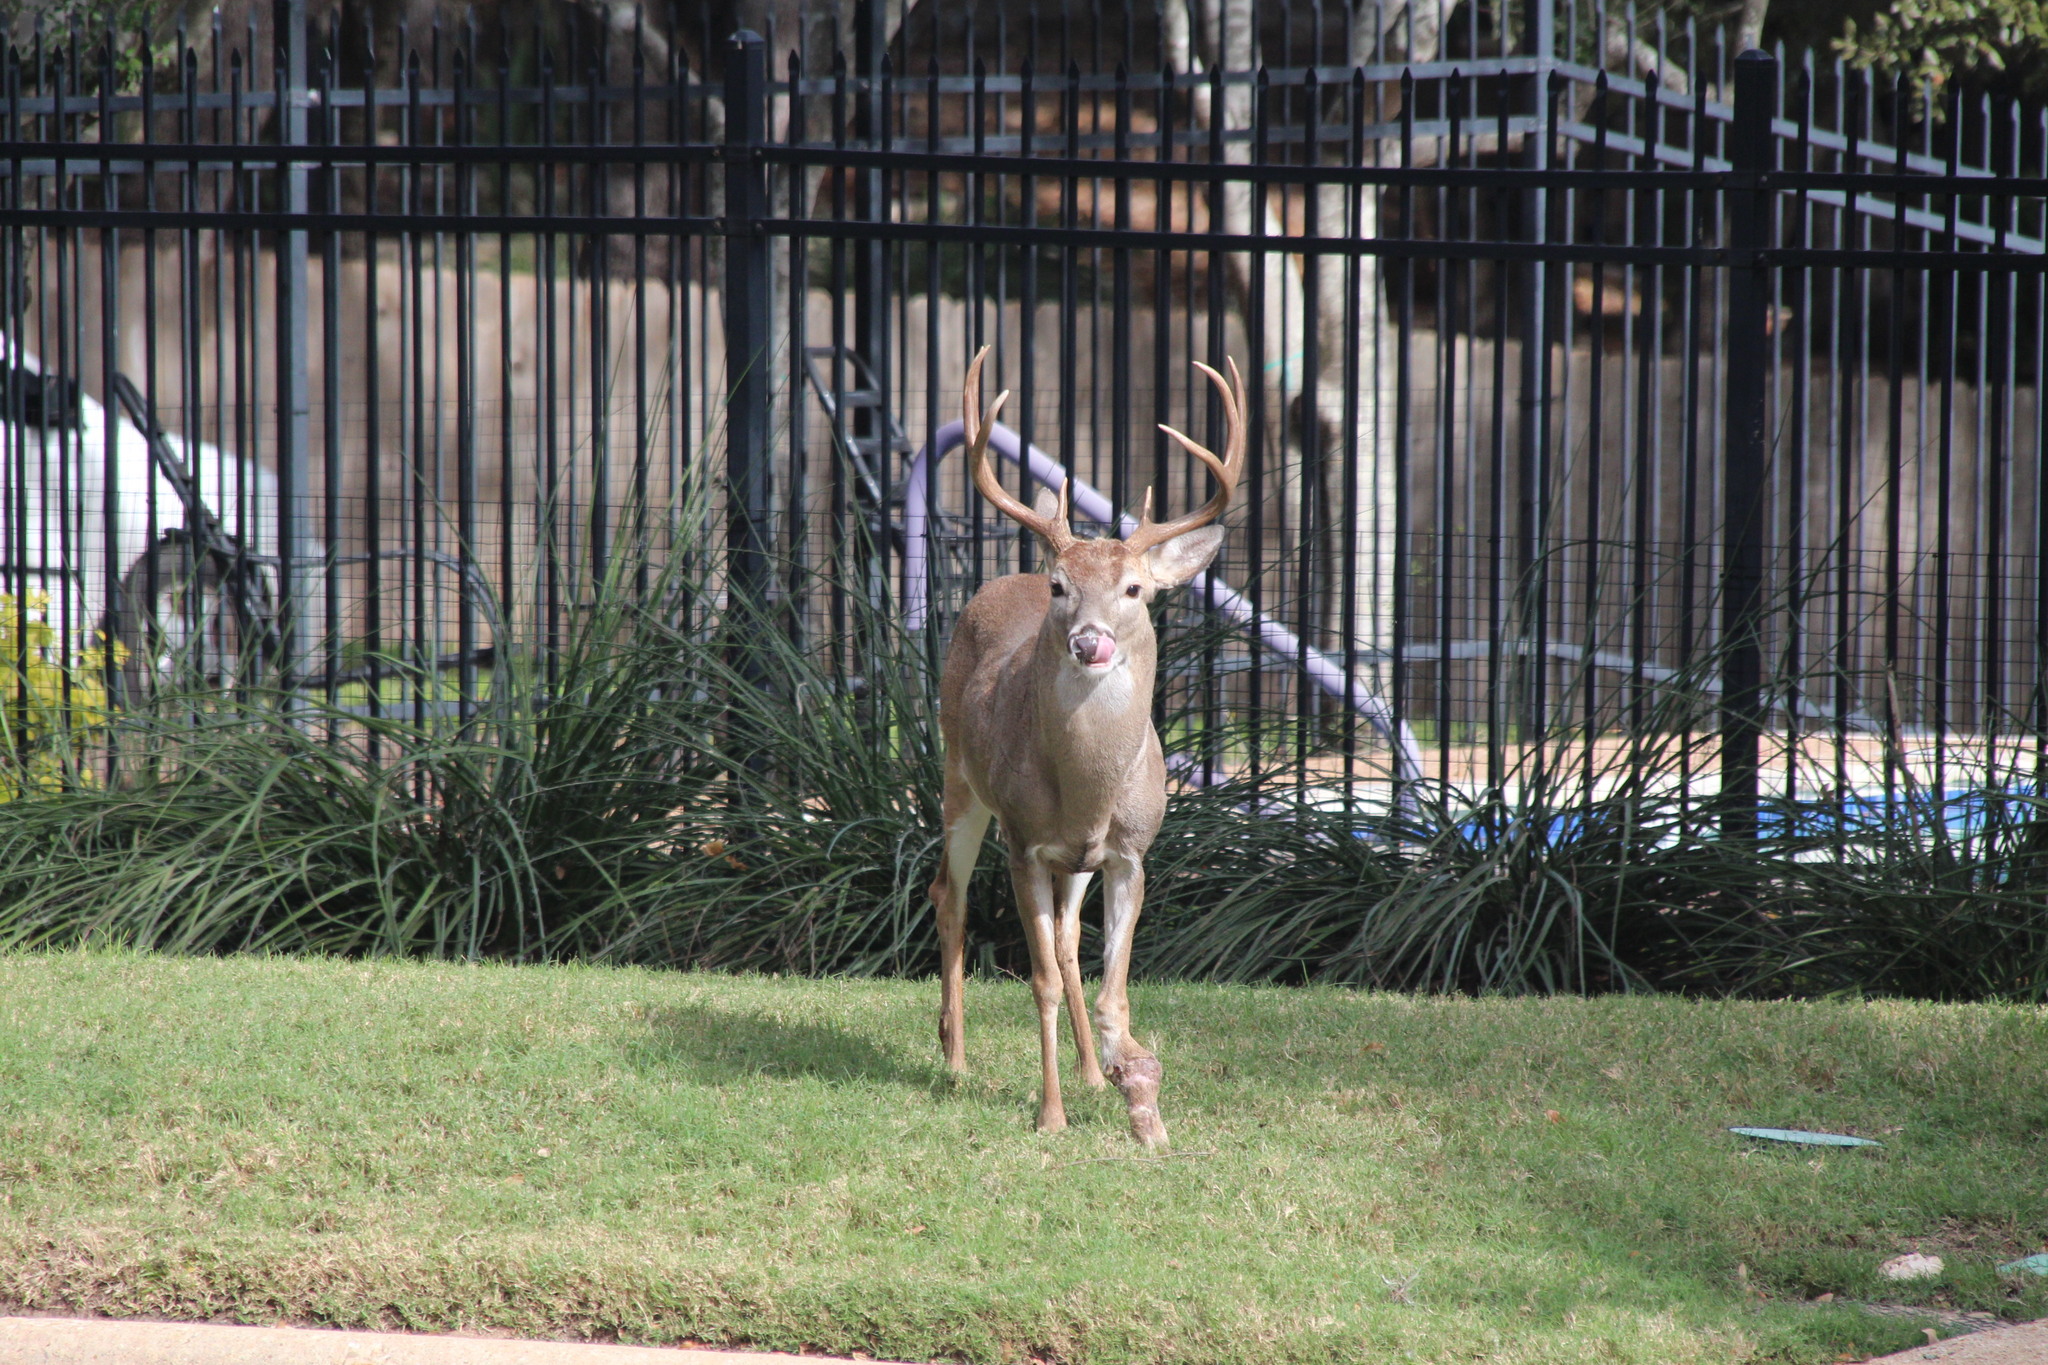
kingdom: Animalia
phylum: Chordata
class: Mammalia
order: Artiodactyla
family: Cervidae
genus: Odocoileus
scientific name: Odocoileus virginianus
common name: White-tailed deer
